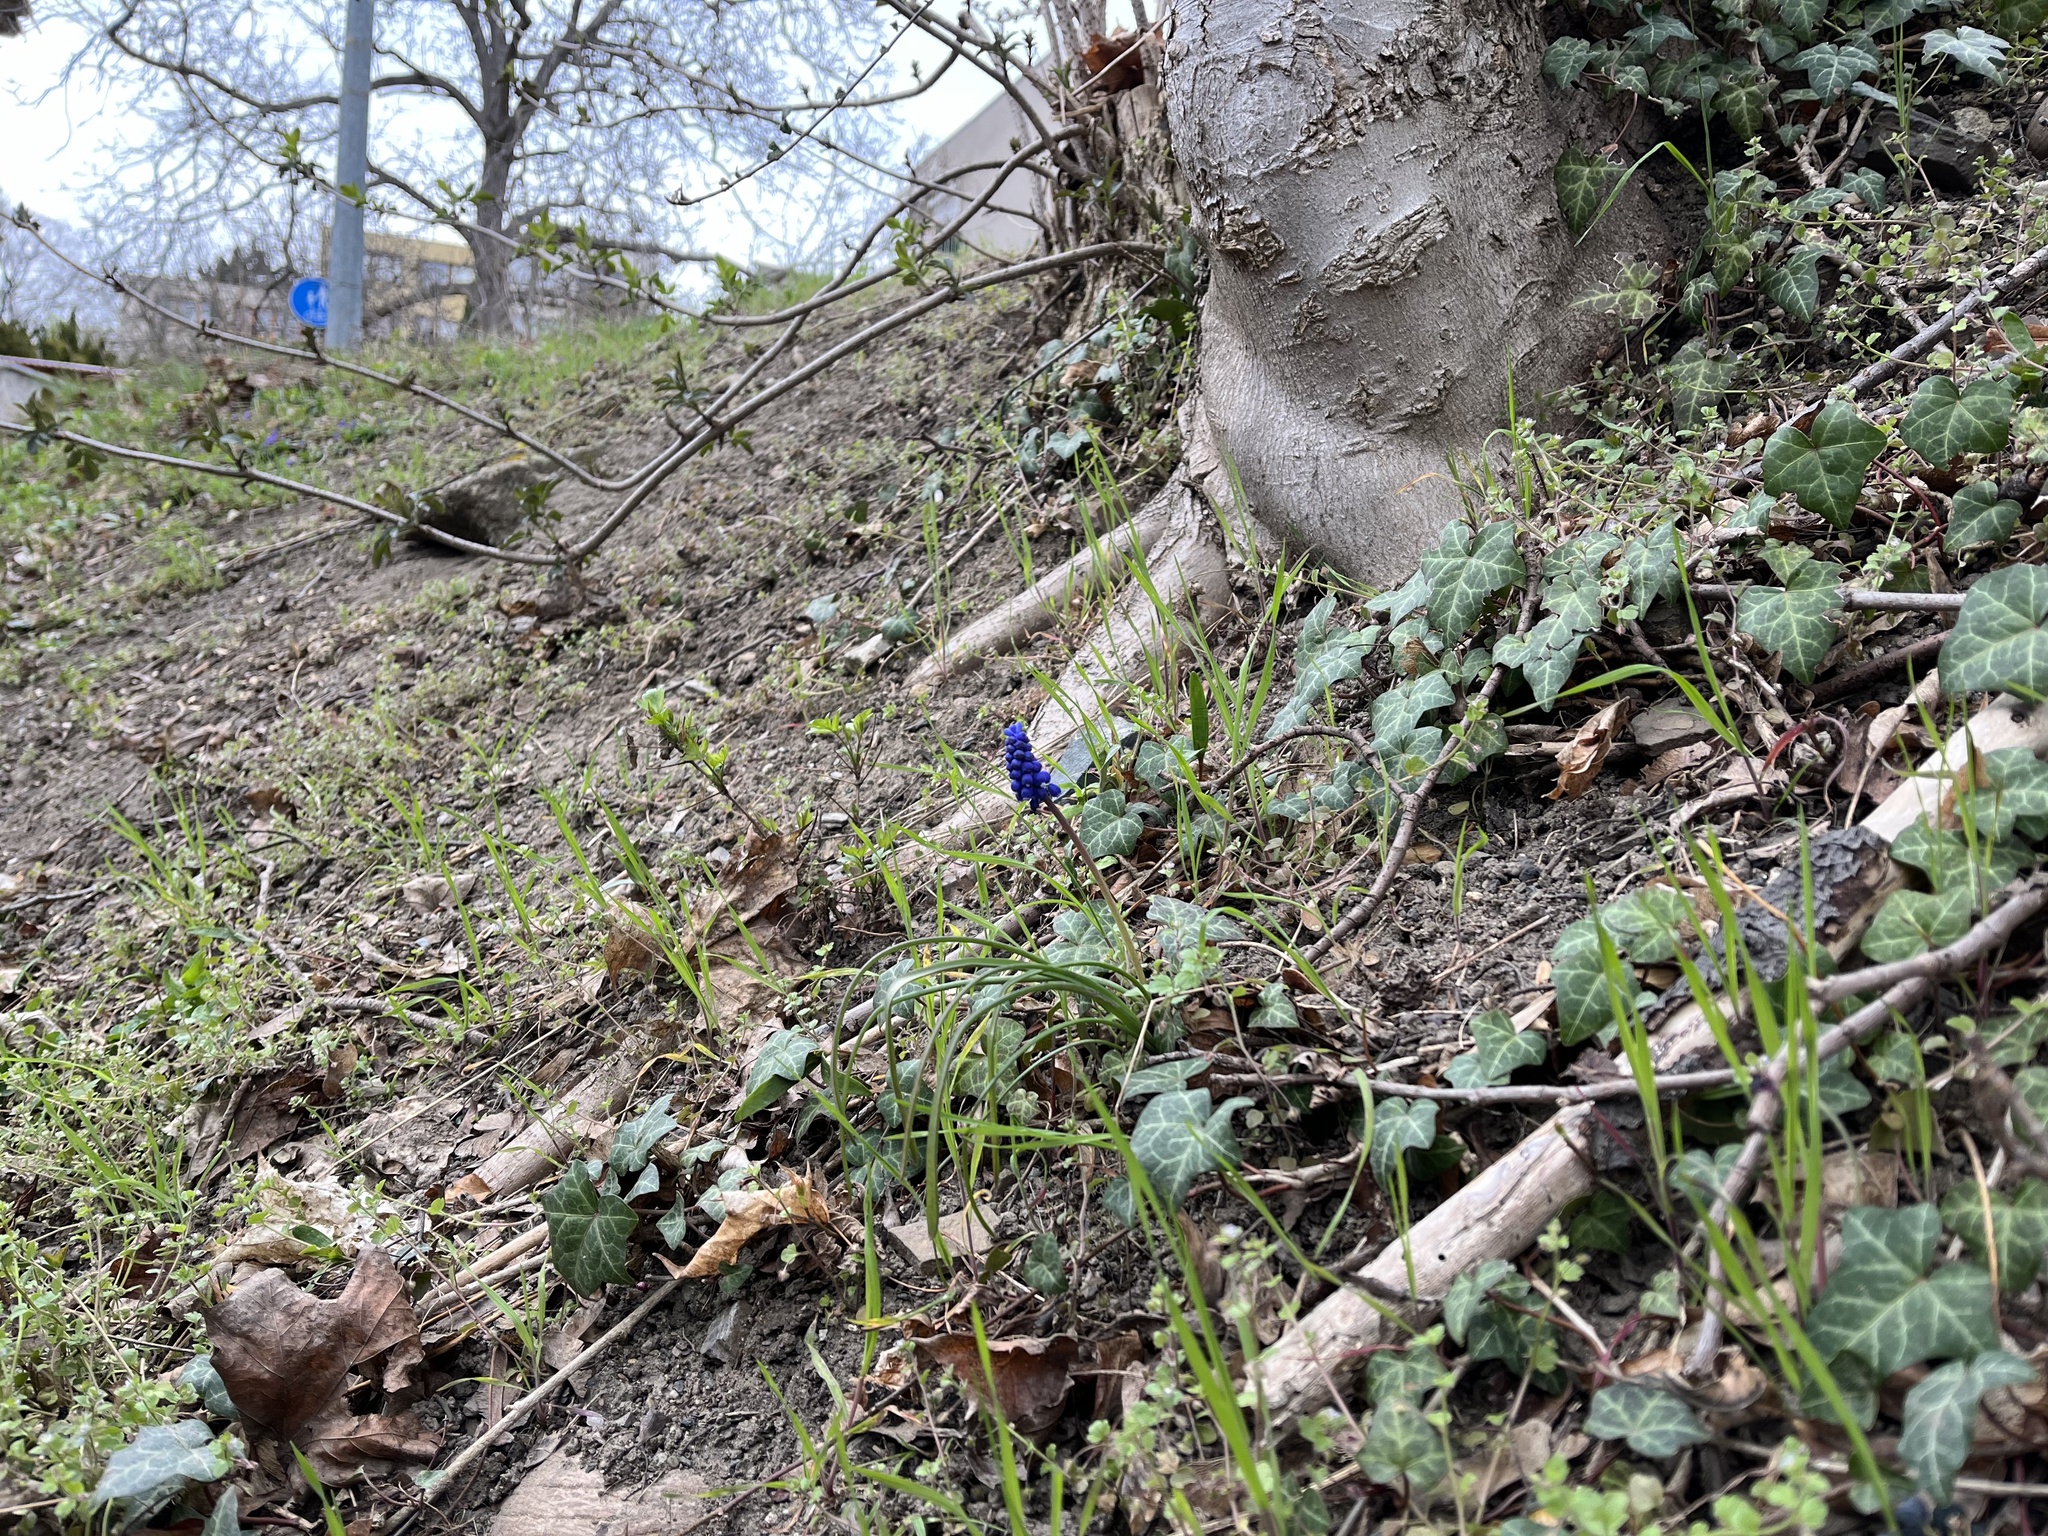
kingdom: Plantae
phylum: Tracheophyta
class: Liliopsida
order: Asparagales
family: Asparagaceae
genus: Muscari
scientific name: Muscari armeniacum
